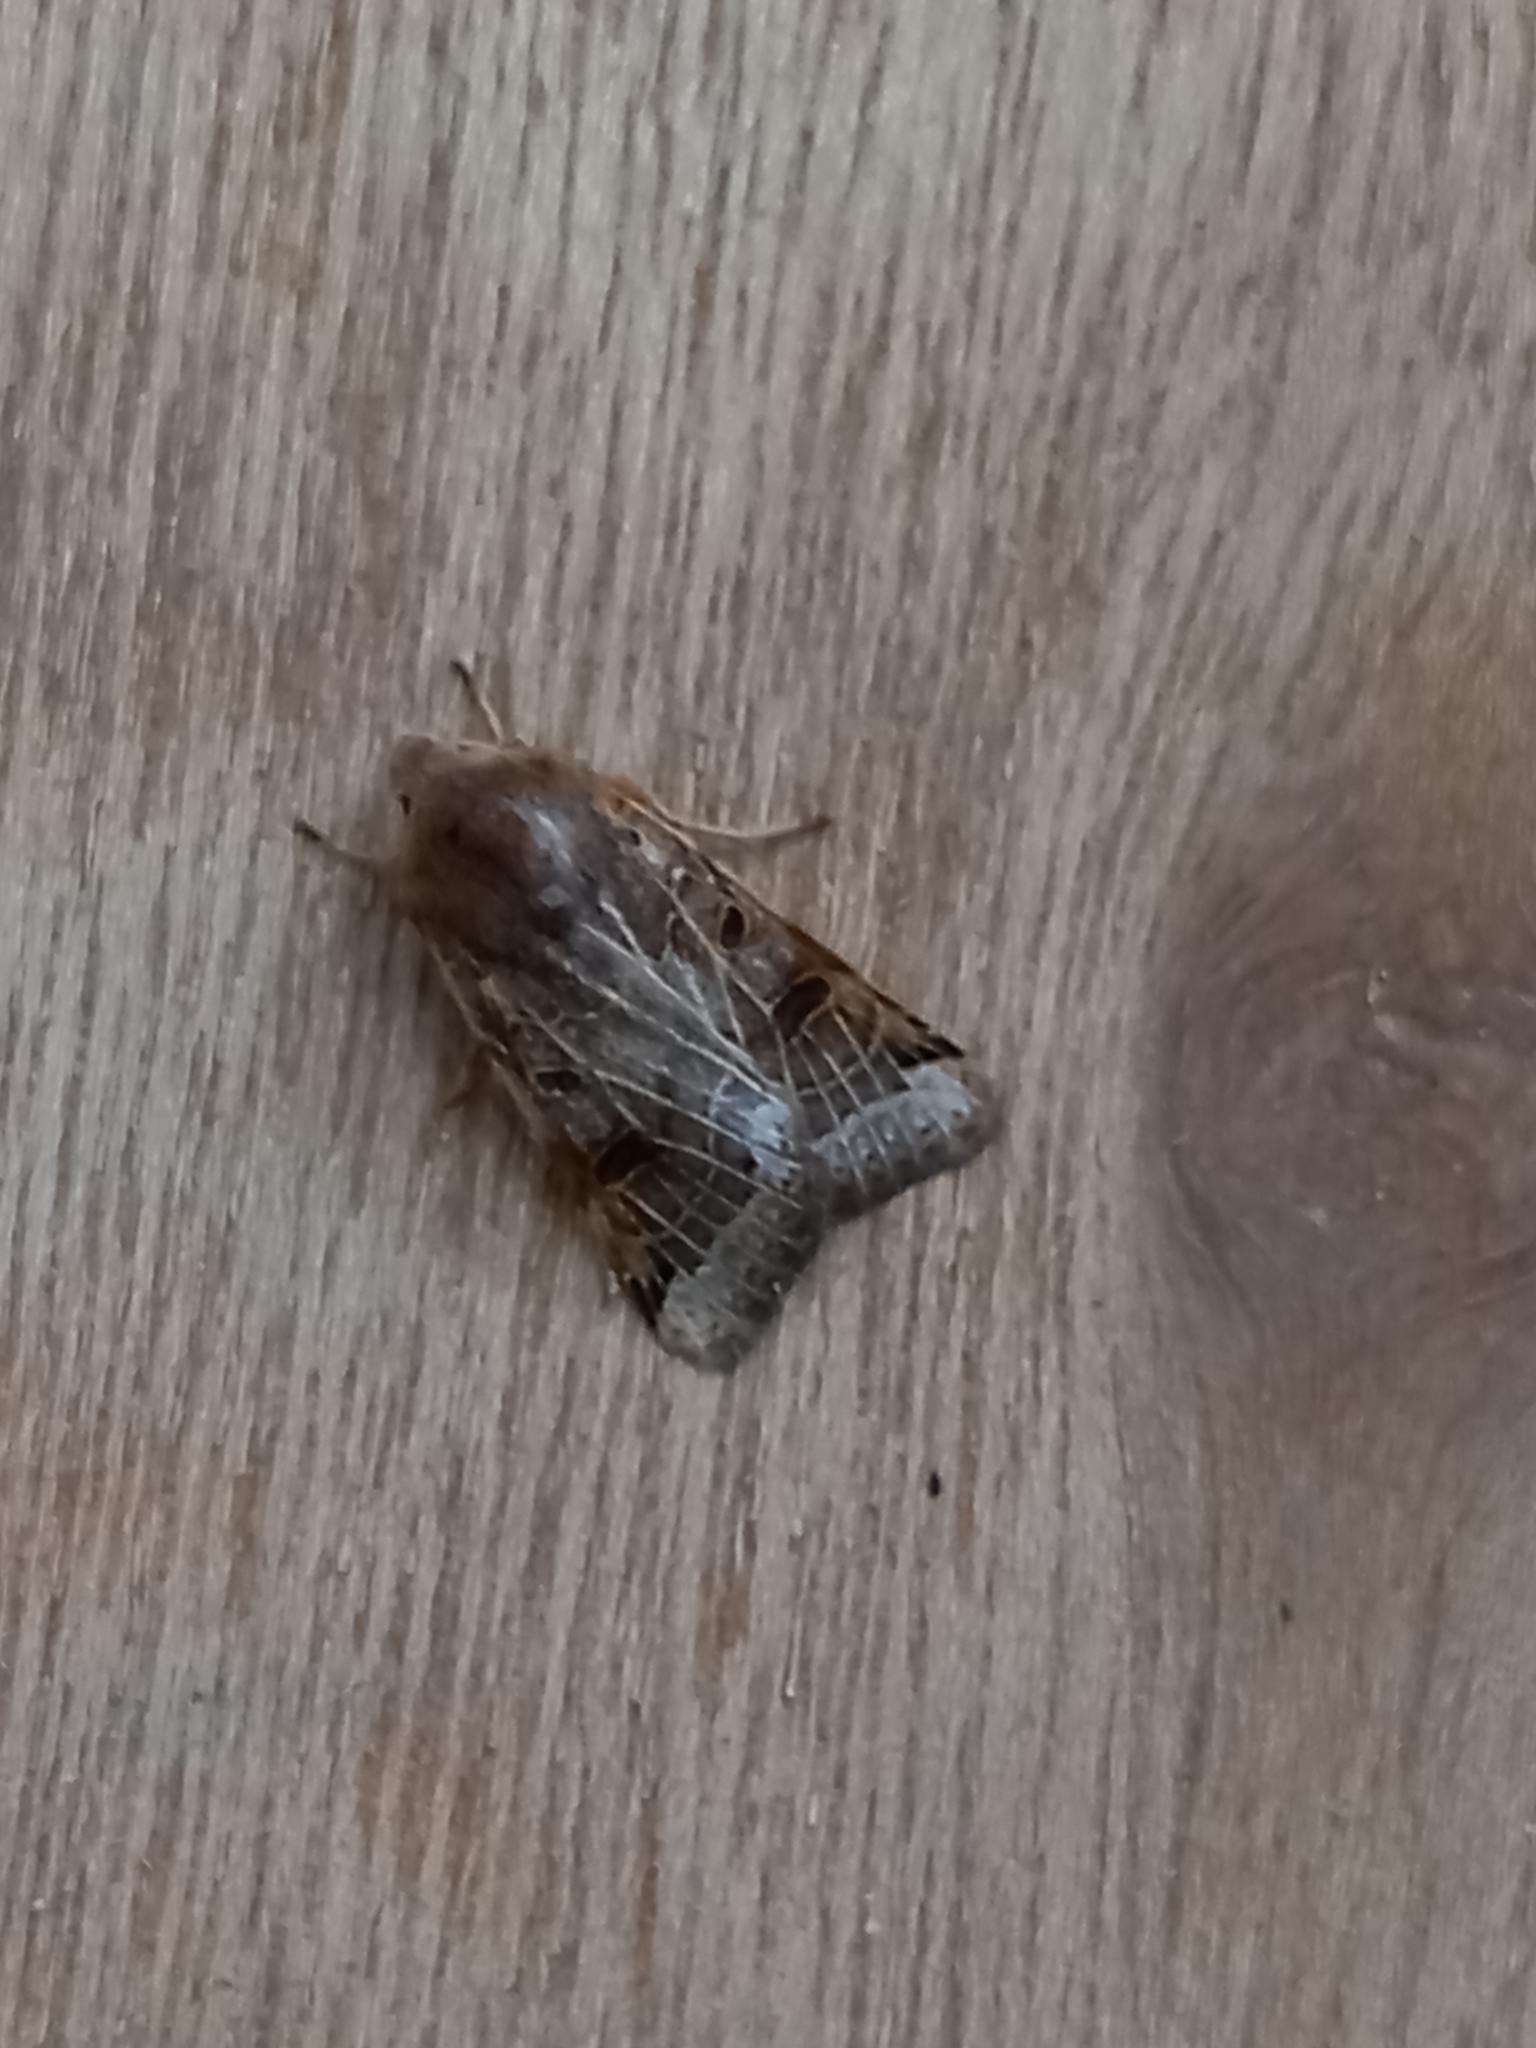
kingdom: Animalia
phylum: Arthropoda
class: Insecta
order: Lepidoptera
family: Noctuidae
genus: Agrochola
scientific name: Agrochola lunosa
